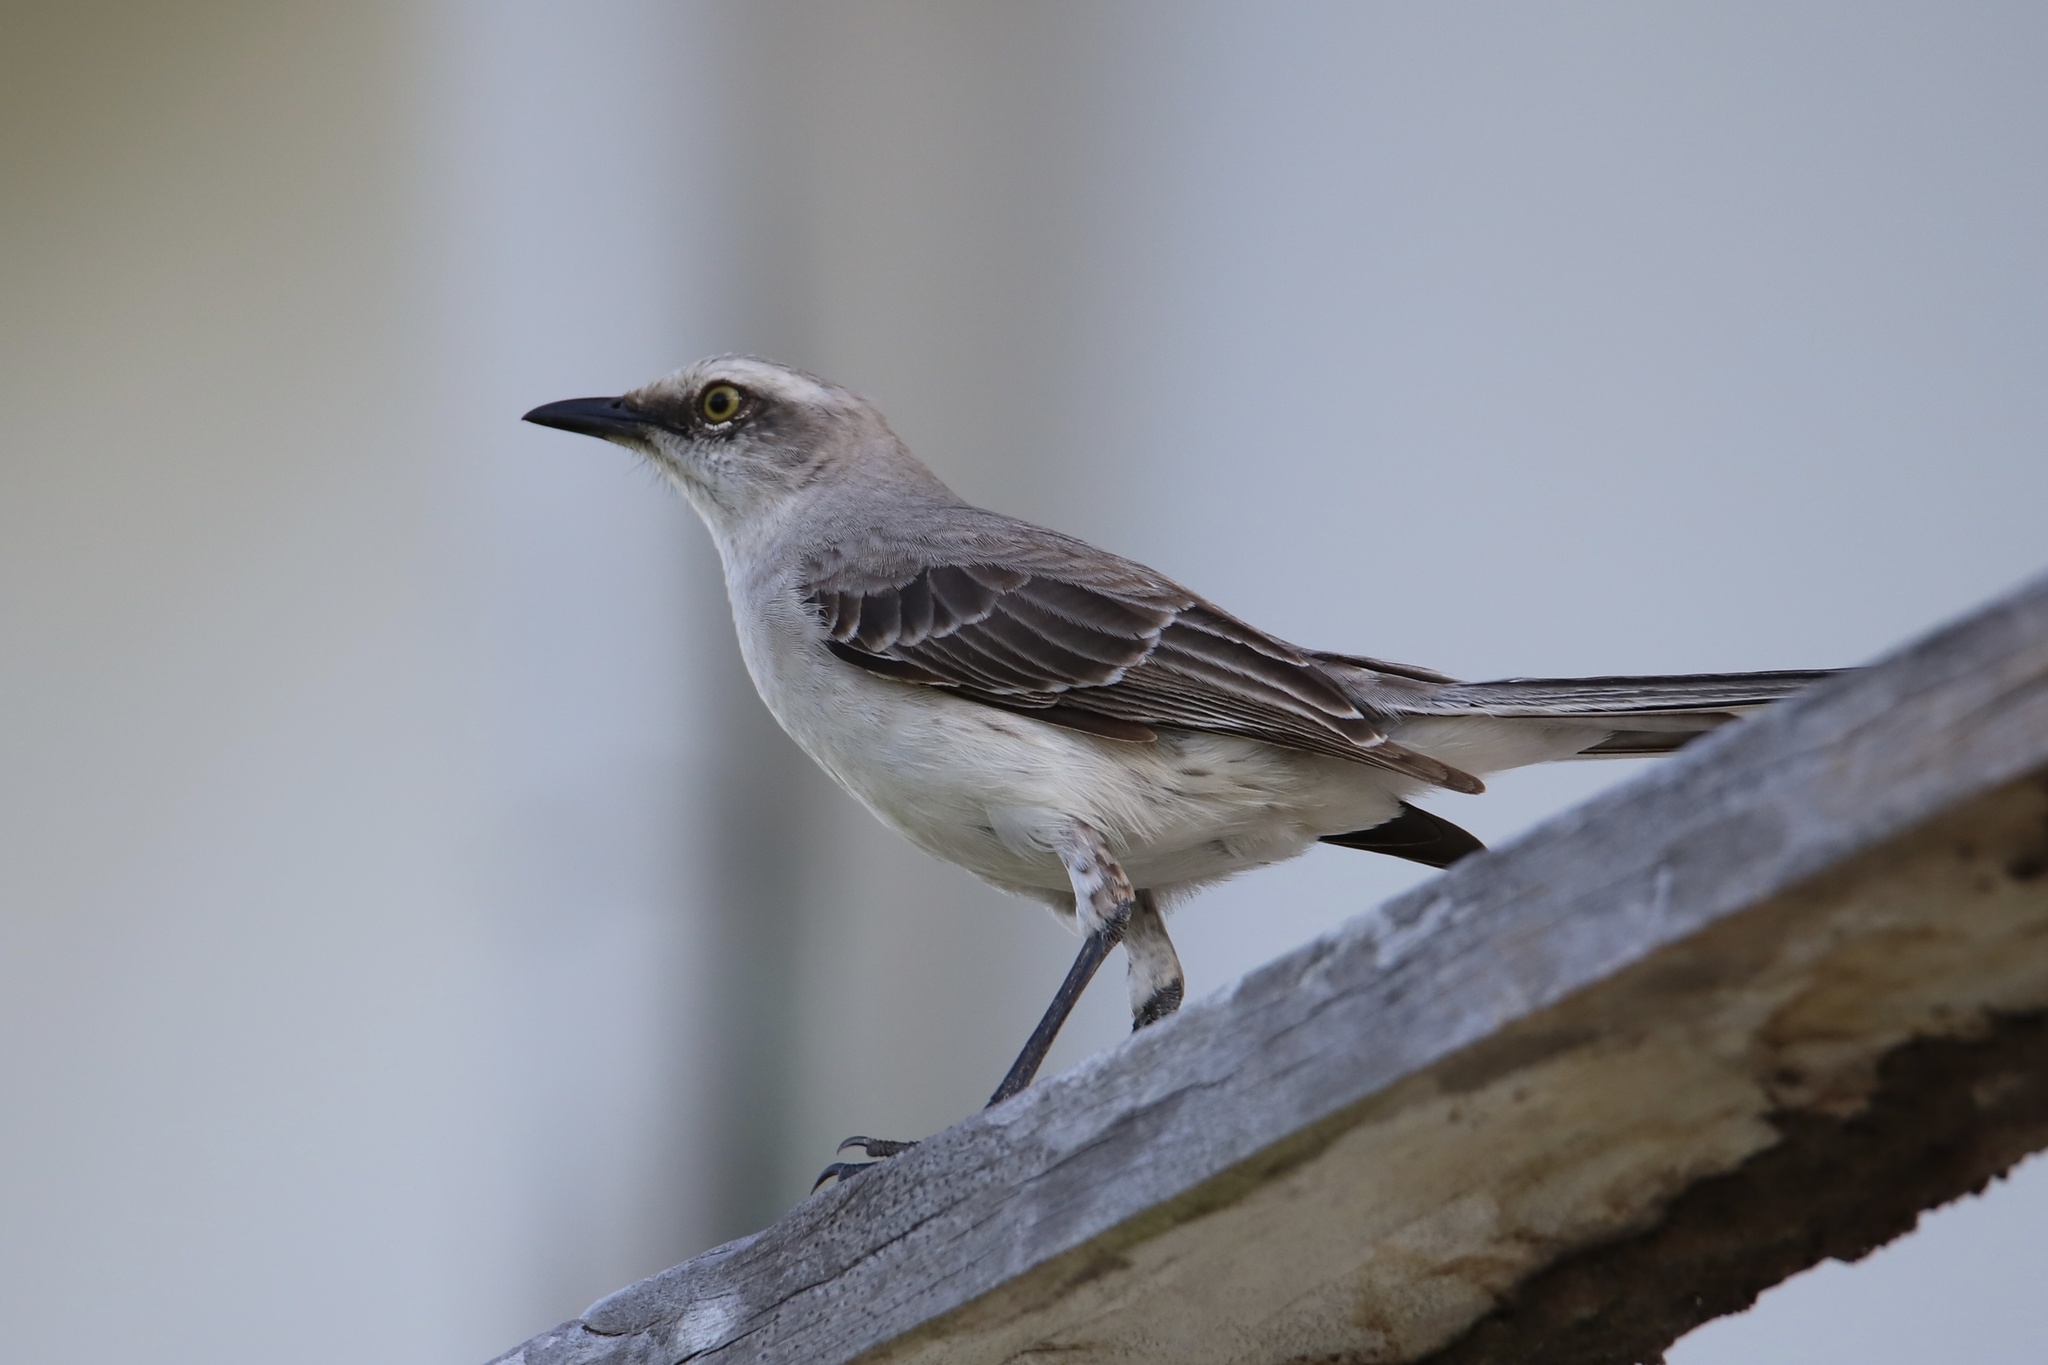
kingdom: Animalia
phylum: Chordata
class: Aves
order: Passeriformes
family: Mimidae
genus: Mimus
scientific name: Mimus gilvus
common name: Tropical mockingbird
